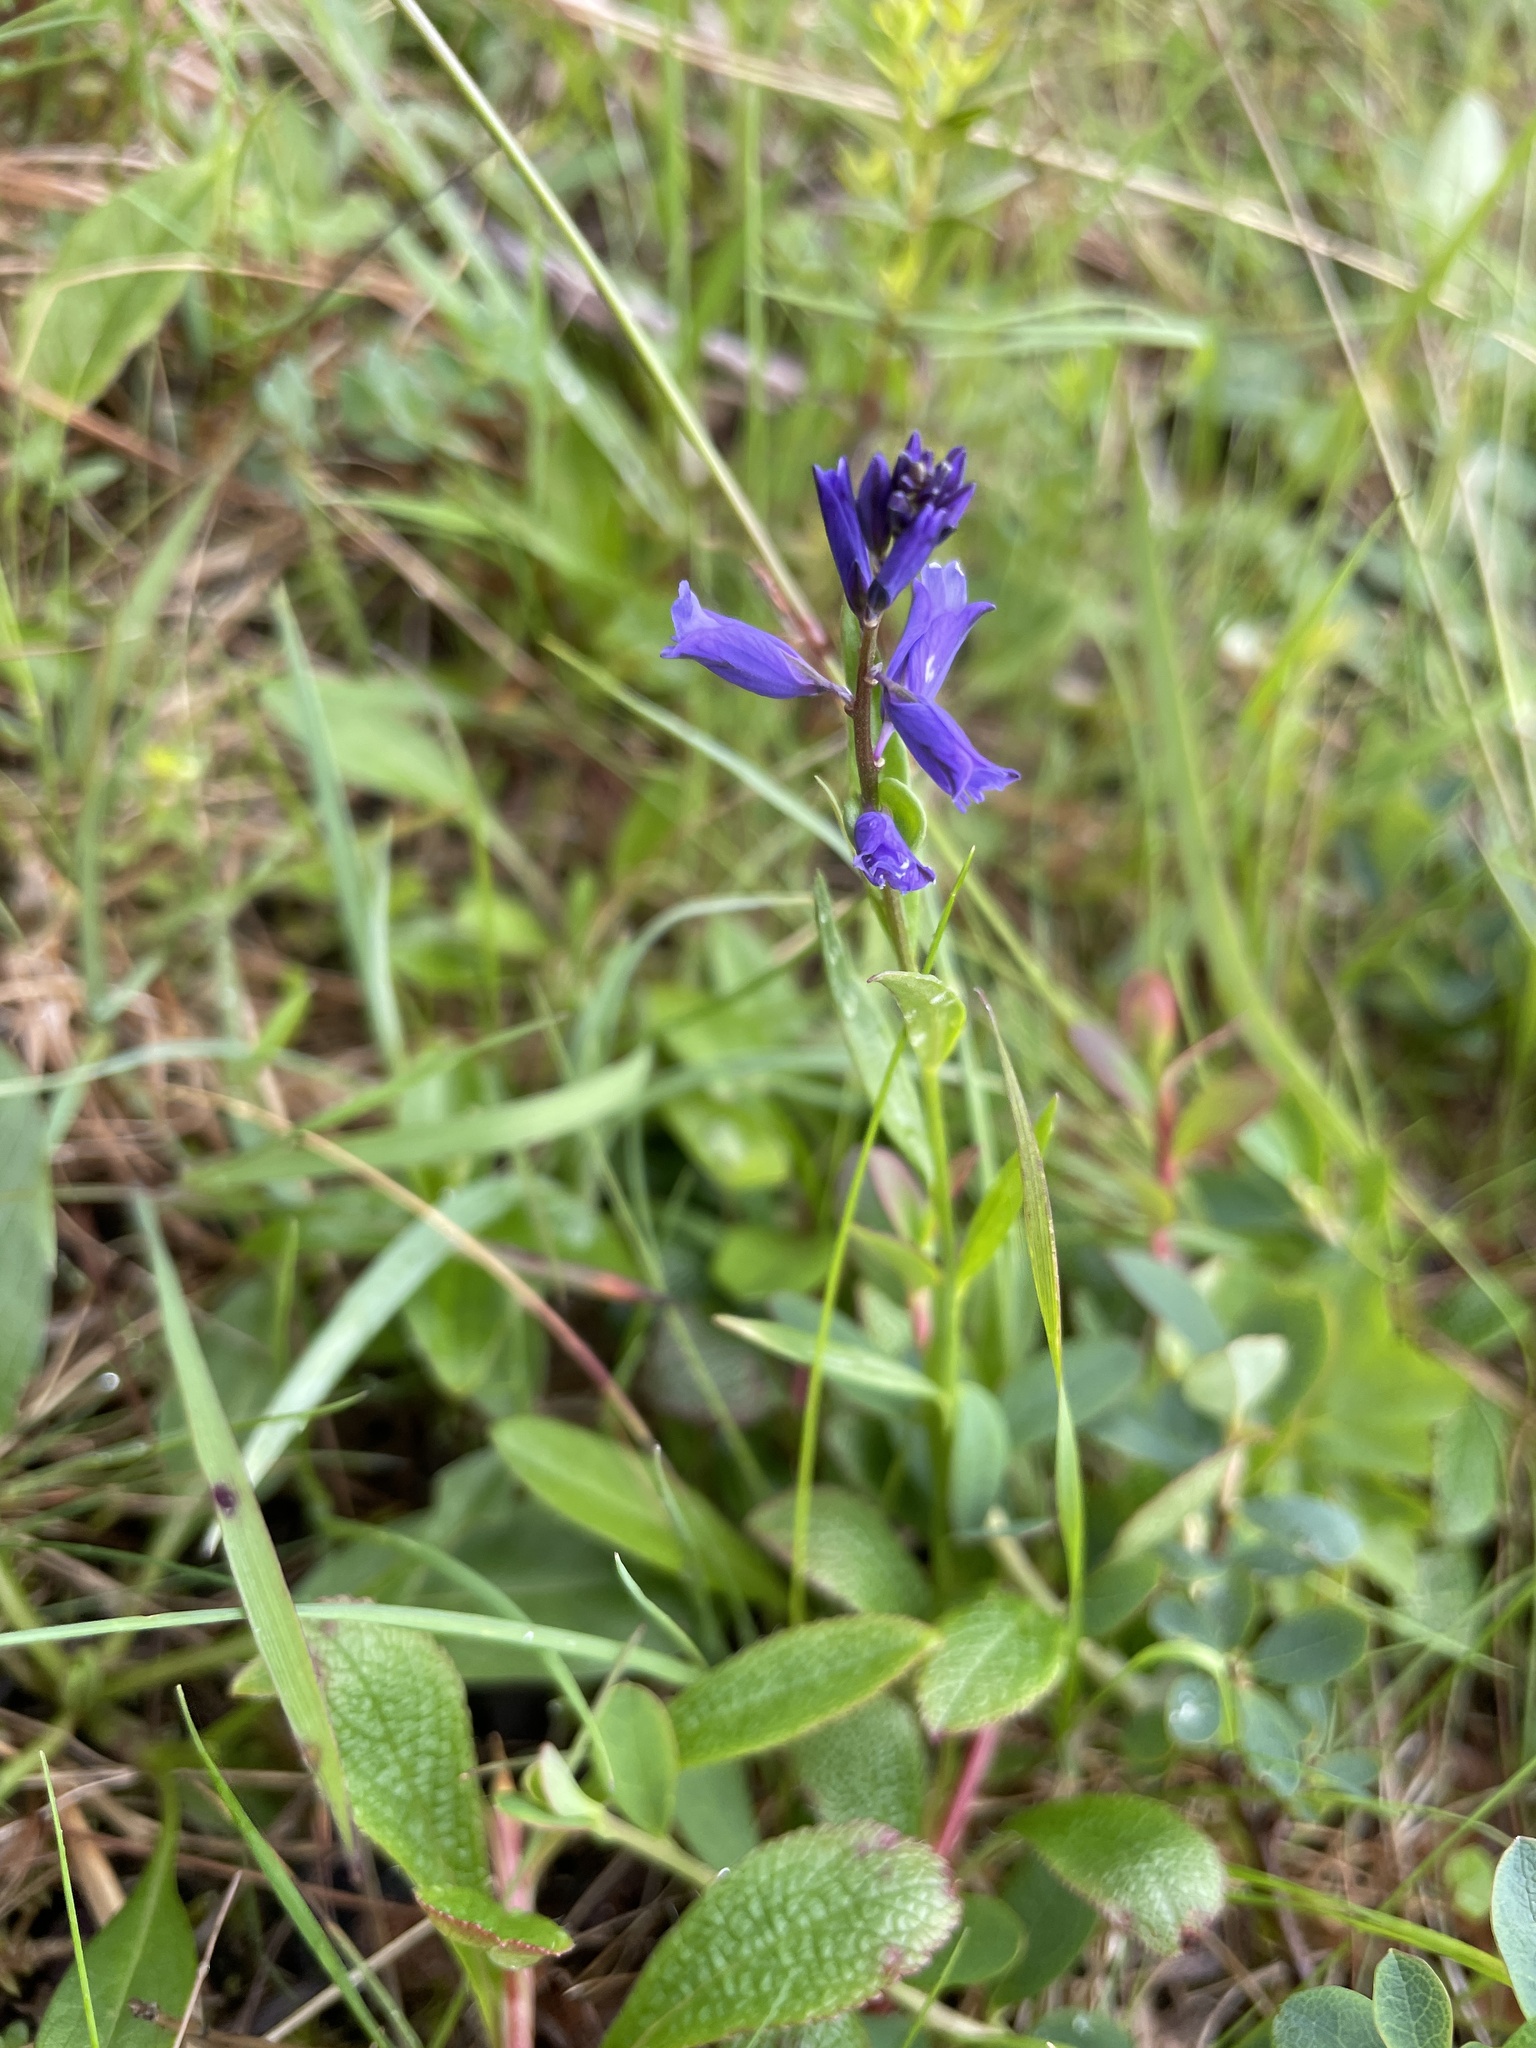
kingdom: Plantae
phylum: Tracheophyta
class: Magnoliopsida
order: Fabales
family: Polygalaceae
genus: Polygala
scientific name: Polygala vulgaris
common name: Common milkwort
